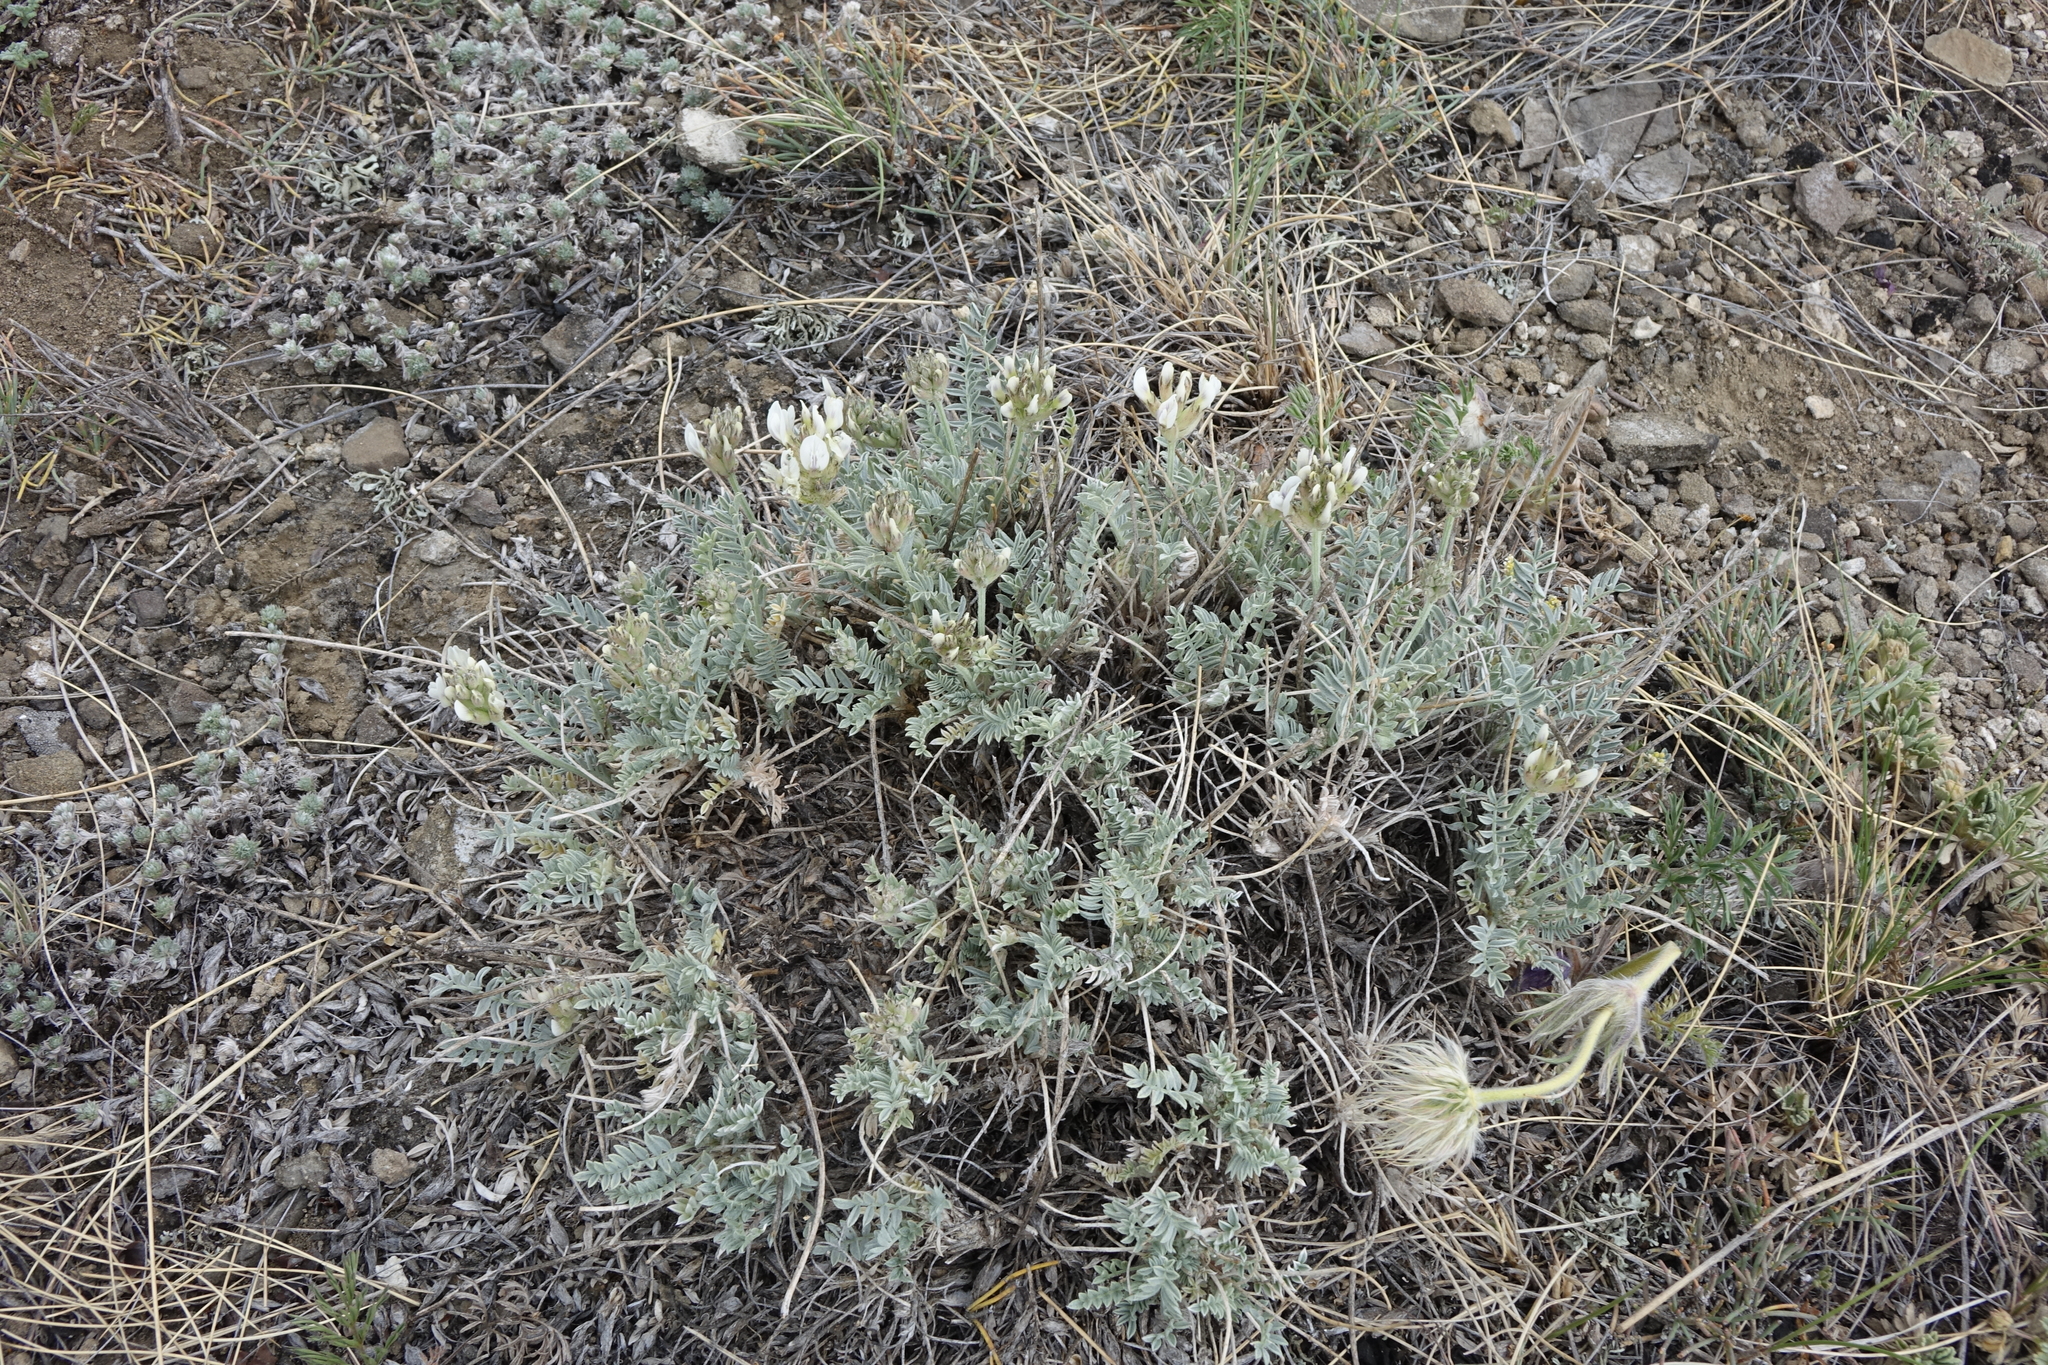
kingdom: Plantae
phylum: Tracheophyta
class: Magnoliopsida
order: Fabales
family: Fabaceae
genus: Astragalus
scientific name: Astragalus dilutus
